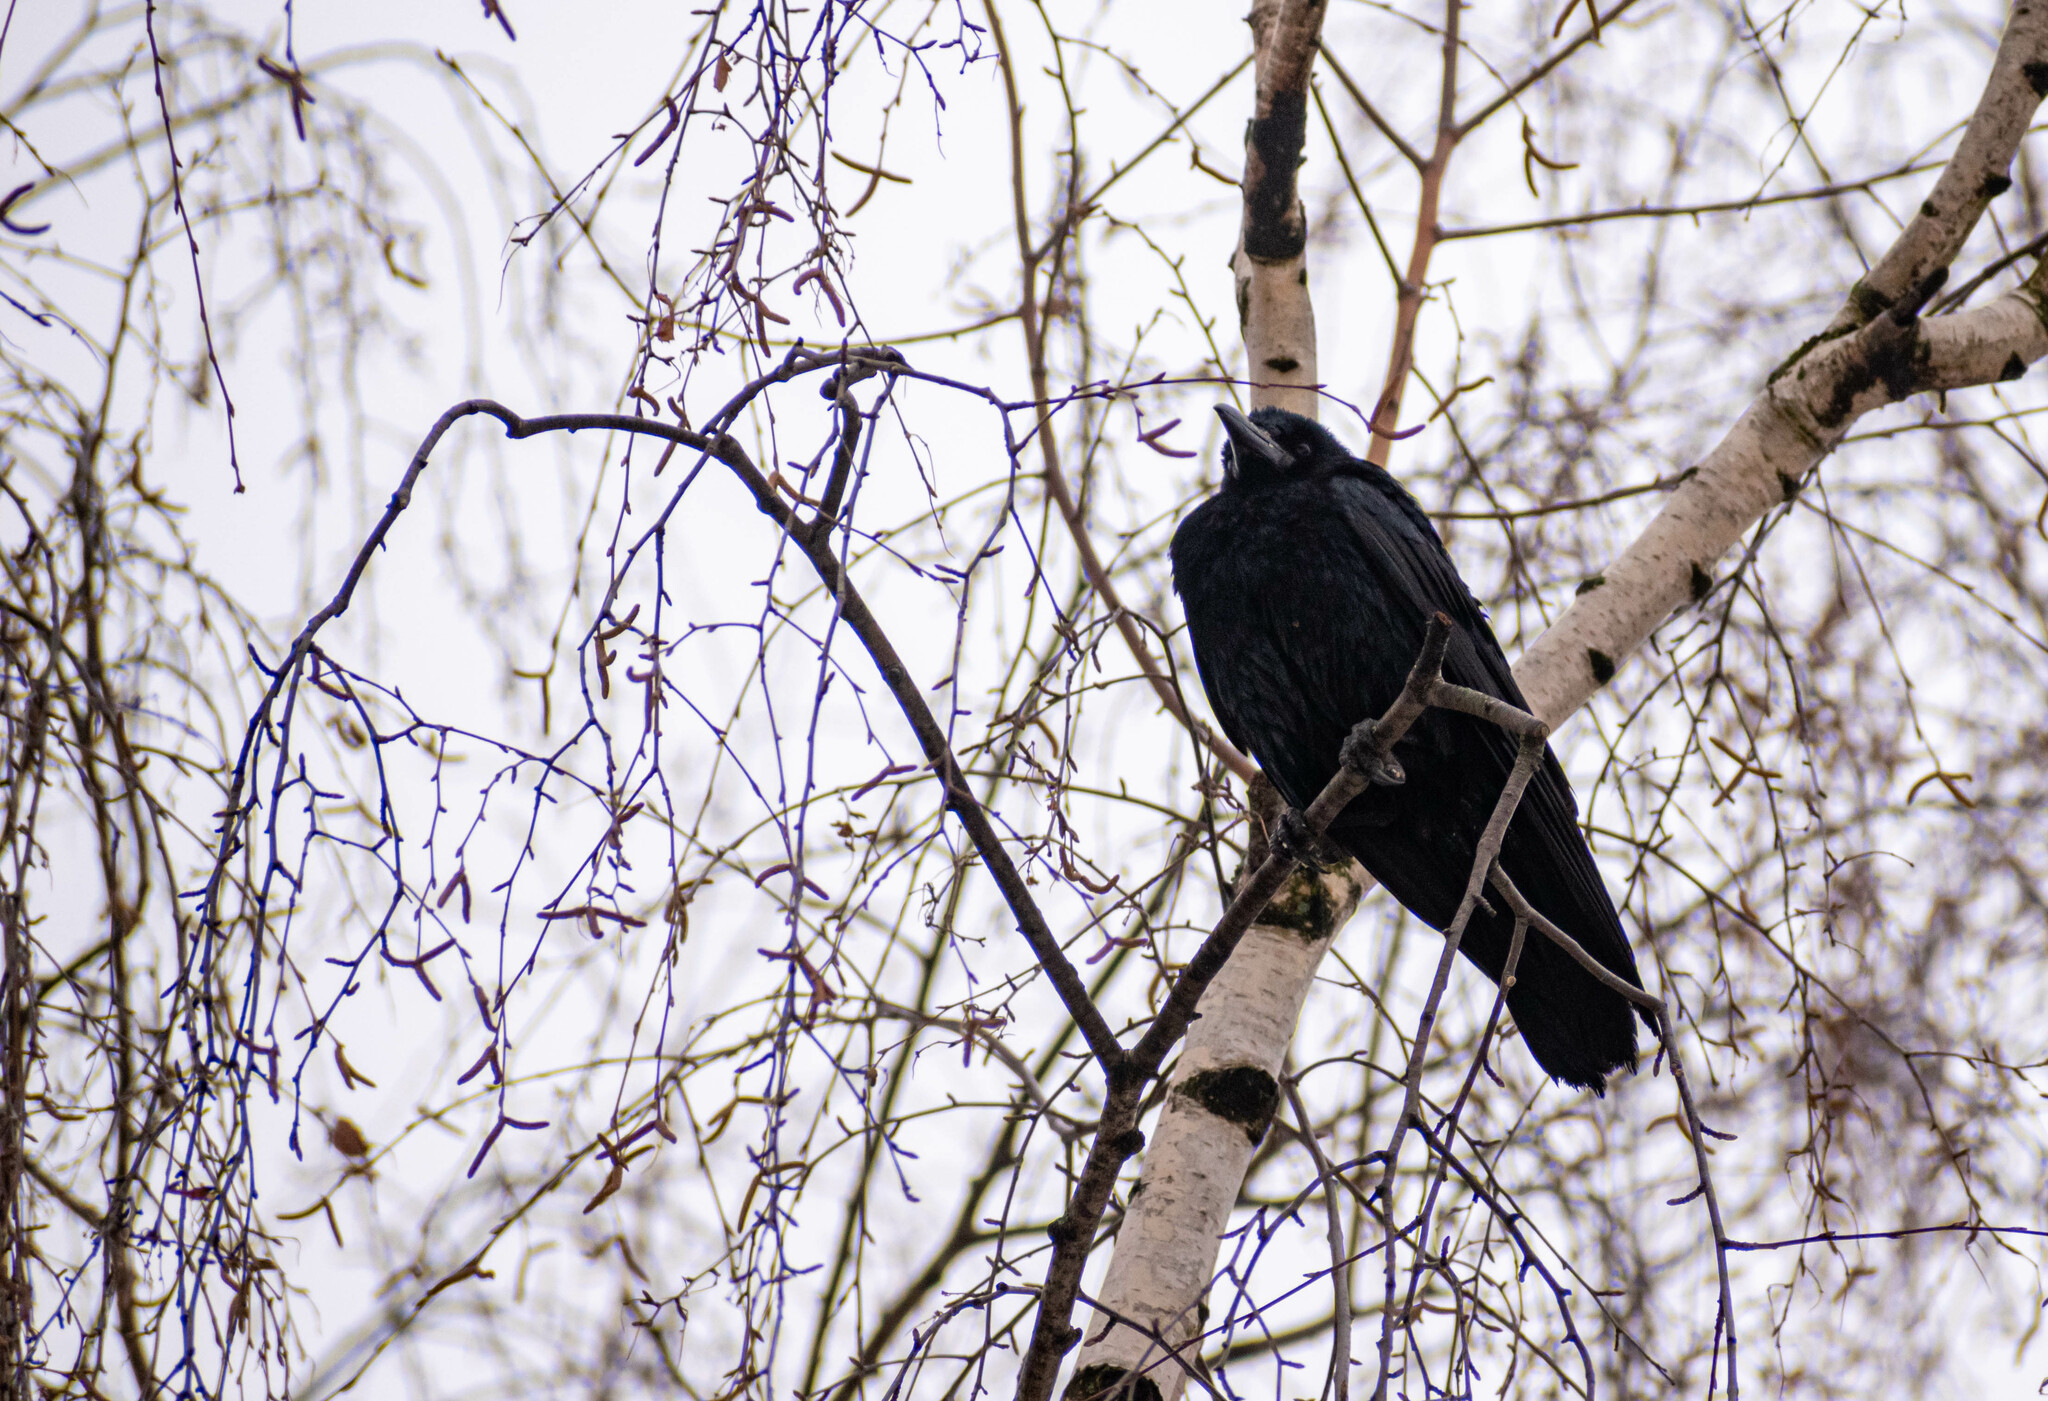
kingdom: Animalia
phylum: Chordata
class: Aves
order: Passeriformes
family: Corvidae
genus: Corvus
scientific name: Corvus frugilegus
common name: Rook
